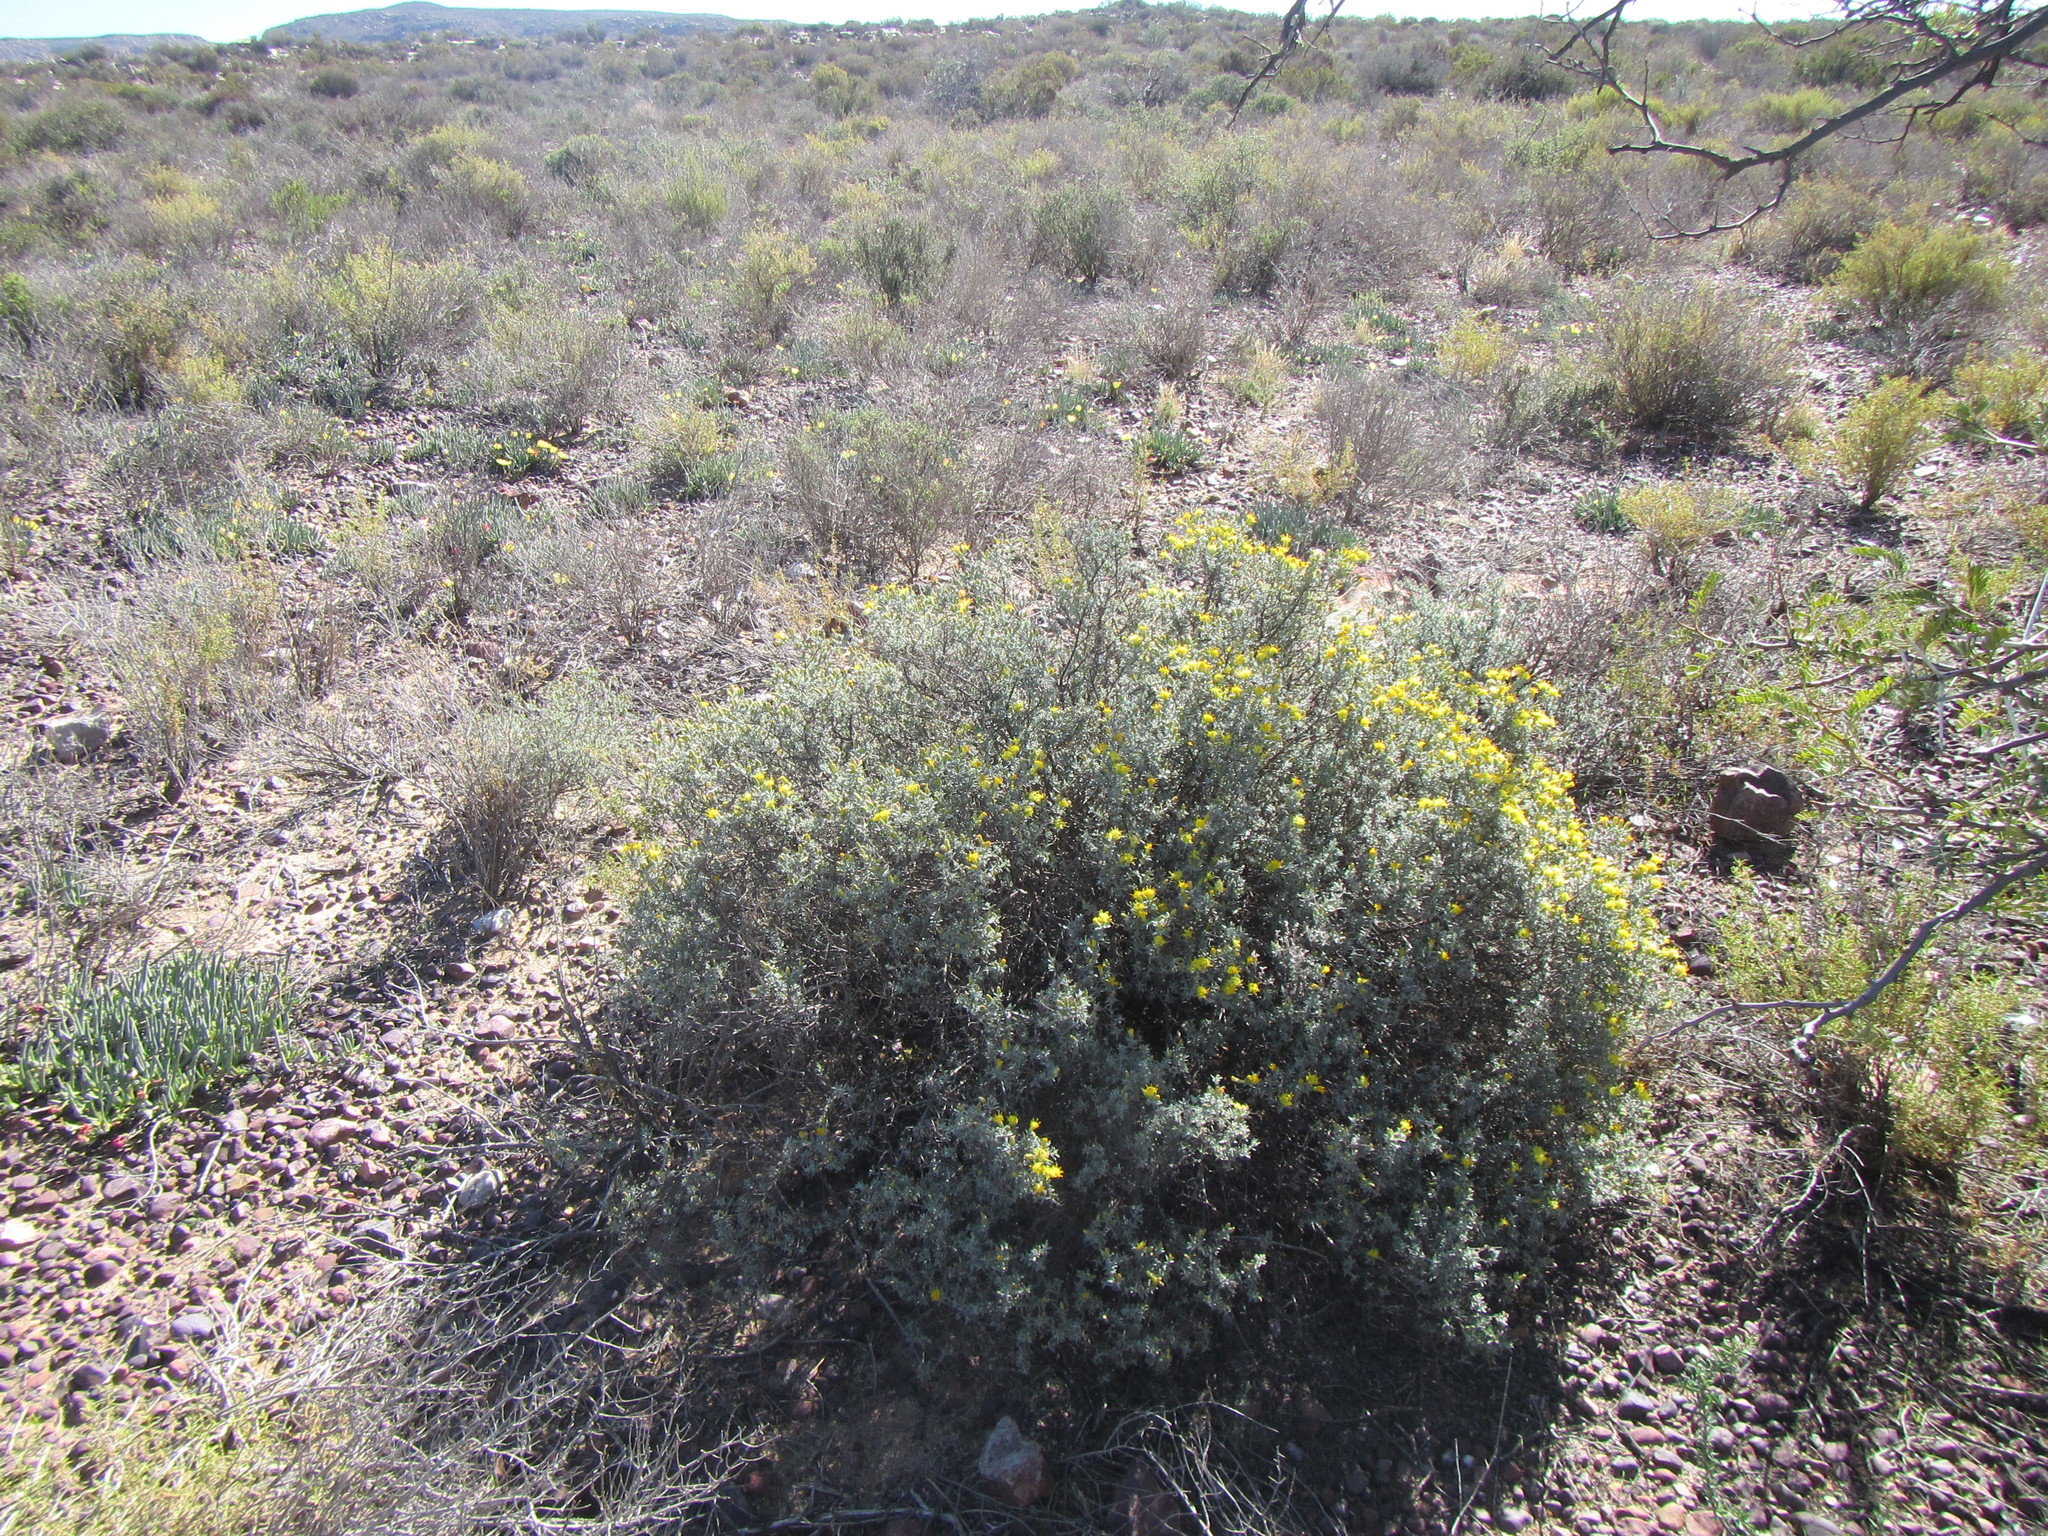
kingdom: Plantae
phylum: Tracheophyta
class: Magnoliopsida
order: Asterales
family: Asteraceae
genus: Pteronia
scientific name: Pteronia incana
